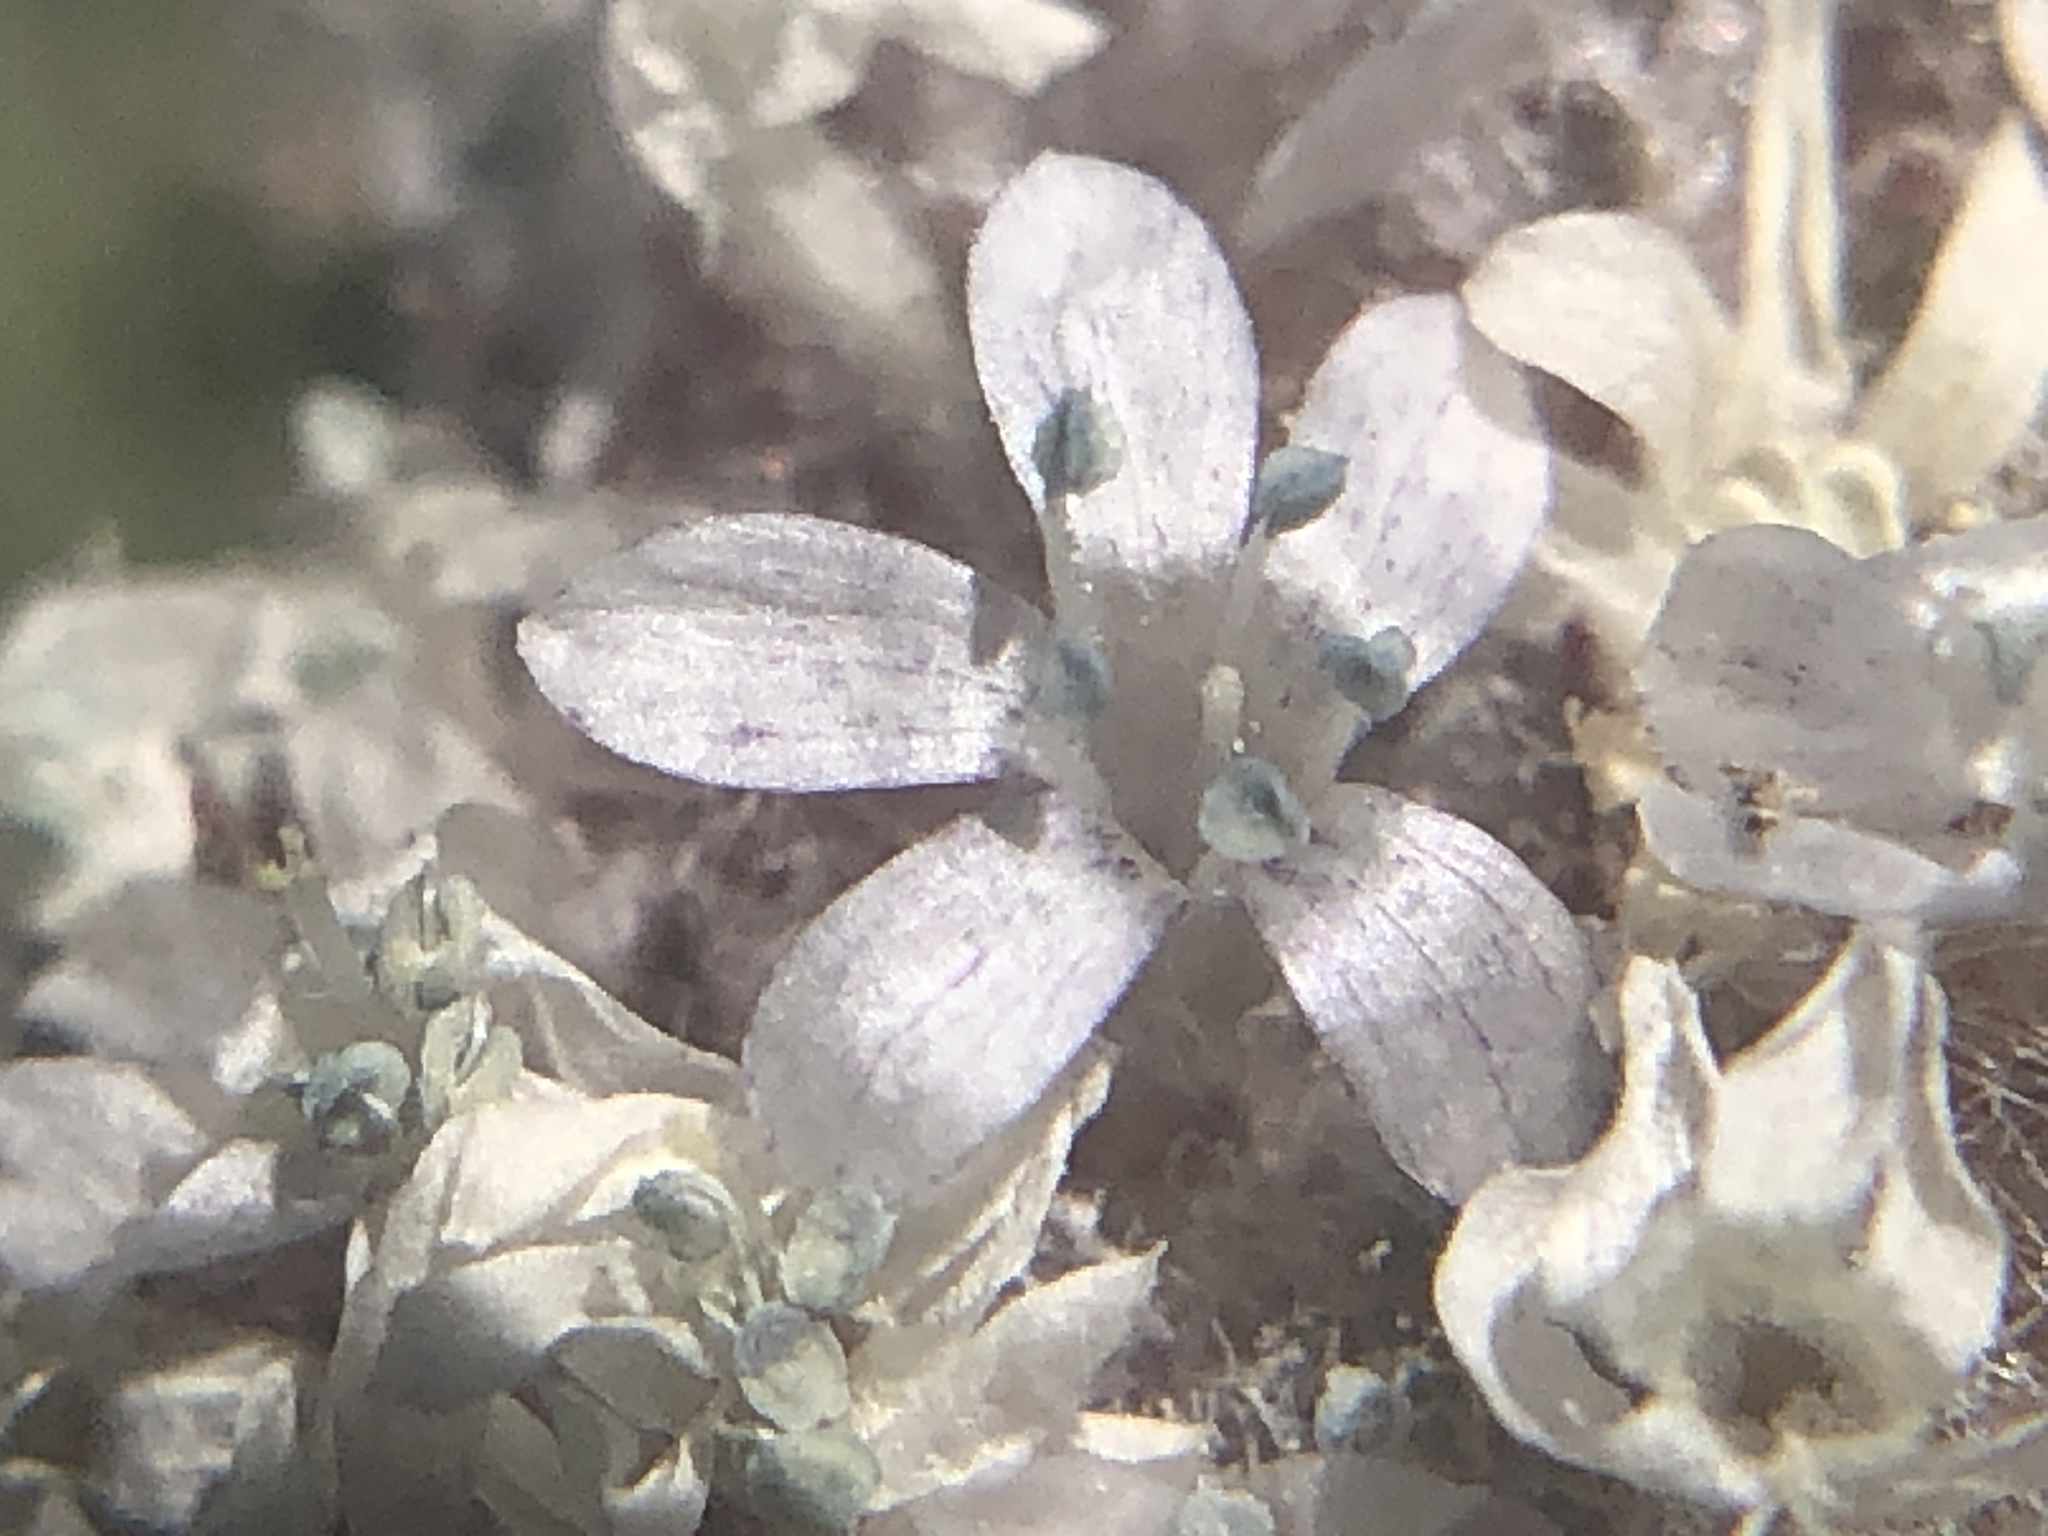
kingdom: Plantae
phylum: Tracheophyta
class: Magnoliopsida
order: Ericales
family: Polemoniaceae
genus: Ipomopsis
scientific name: Ipomopsis congesta
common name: Ball-head gilia
